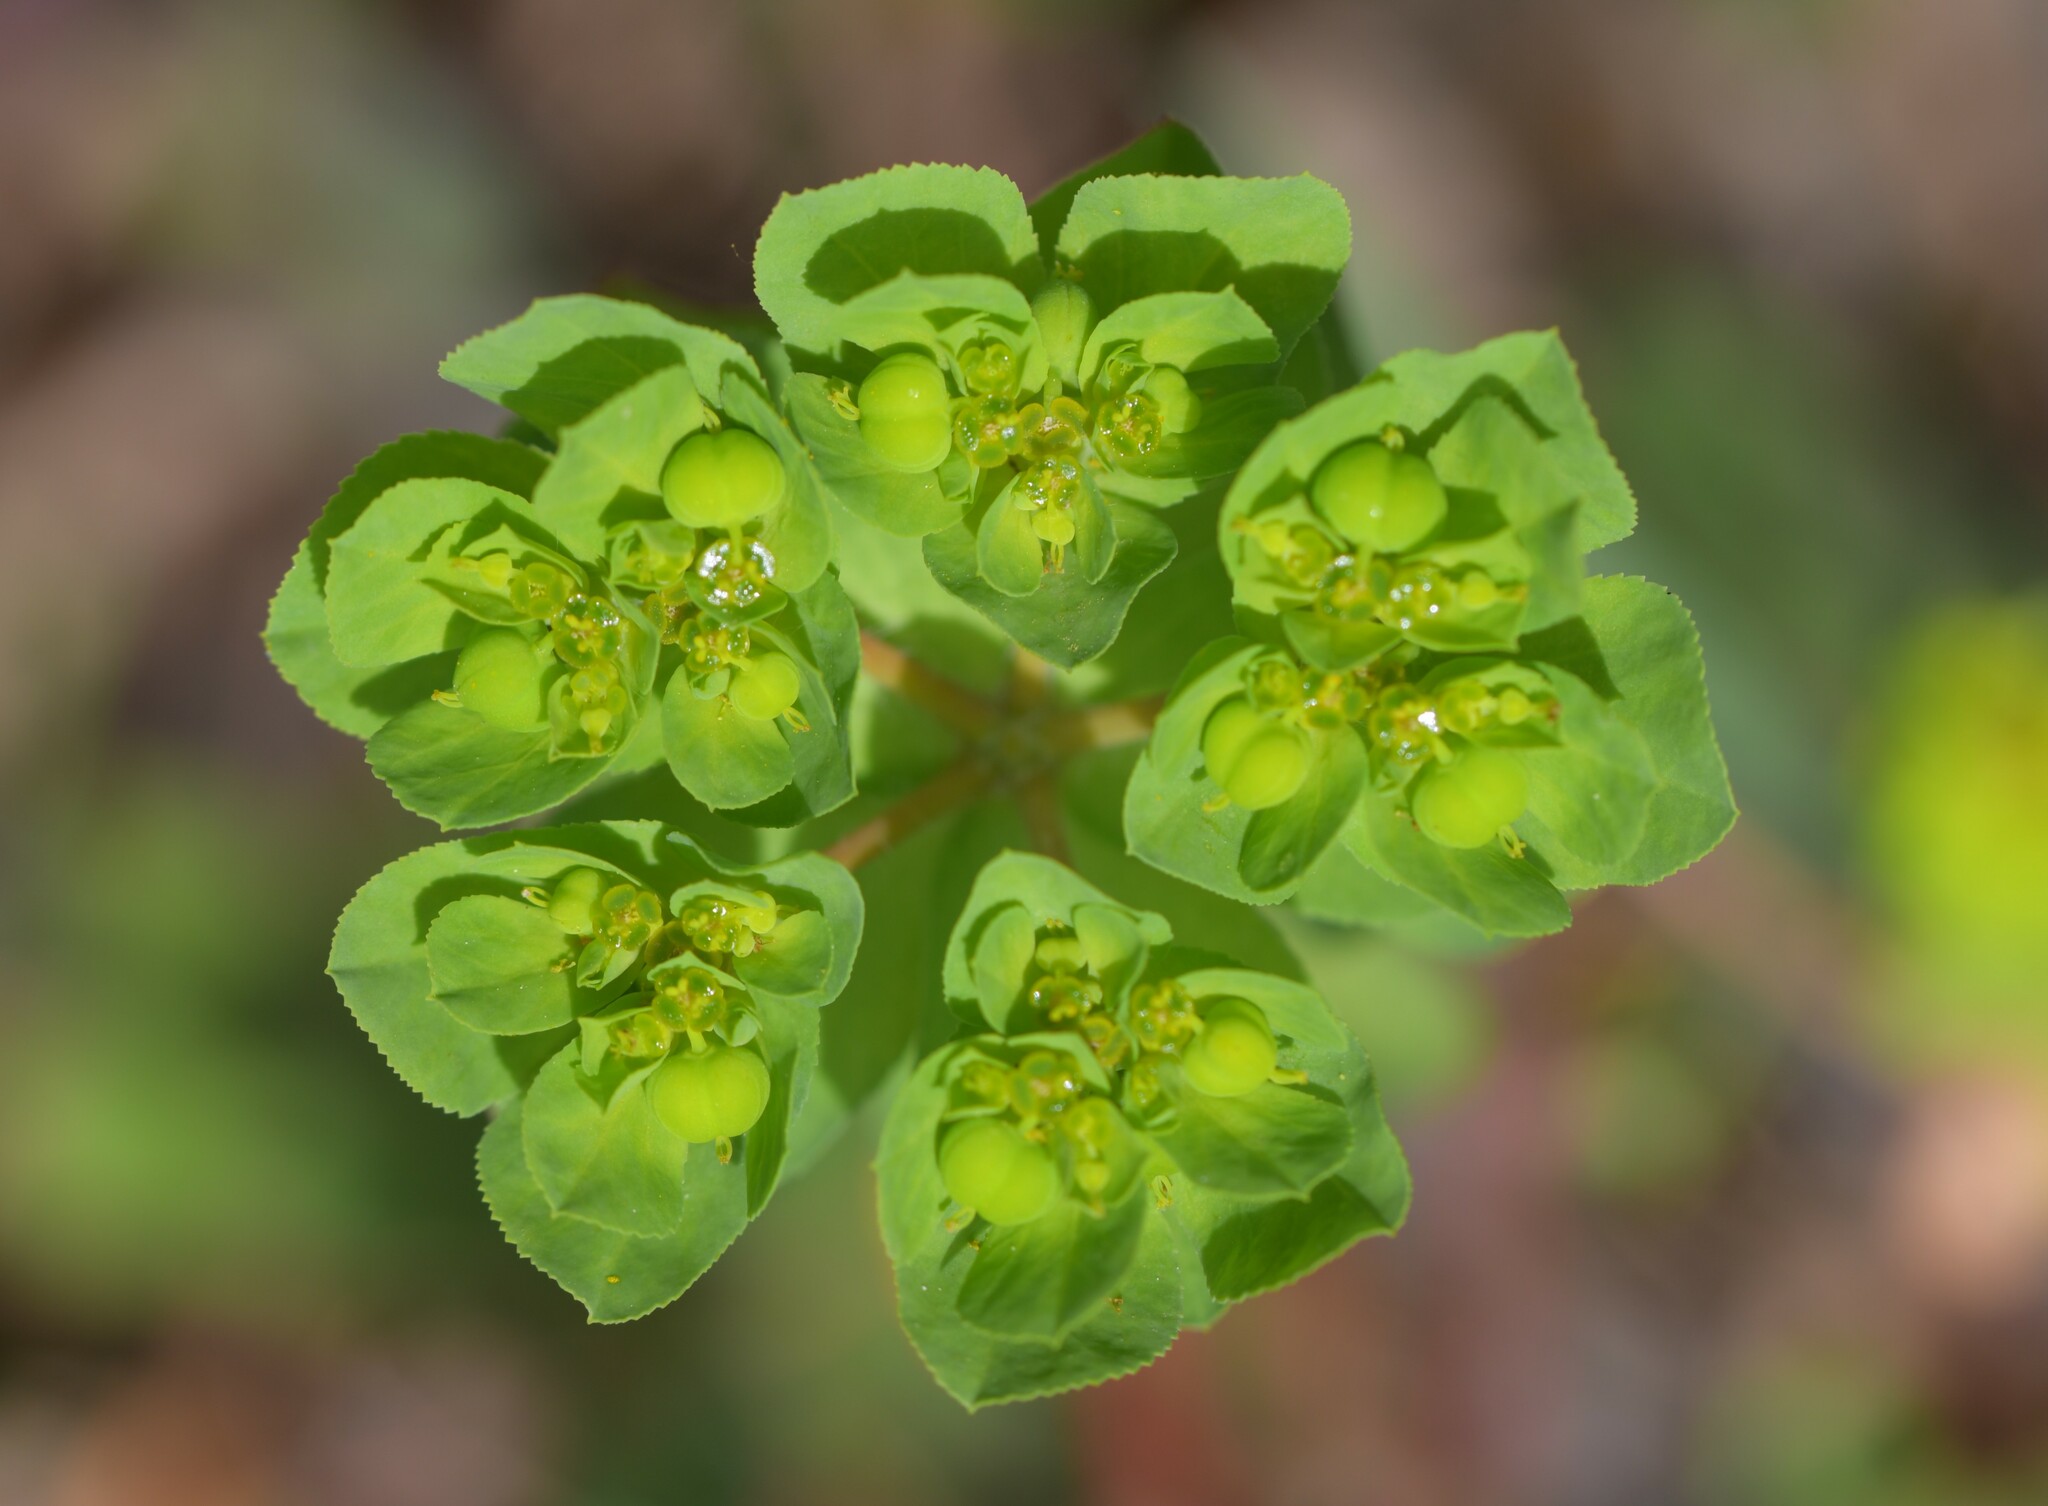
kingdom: Plantae
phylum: Tracheophyta
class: Magnoliopsida
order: Malpighiales
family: Euphorbiaceae
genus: Euphorbia
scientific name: Euphorbia helioscopia
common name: Sun spurge
